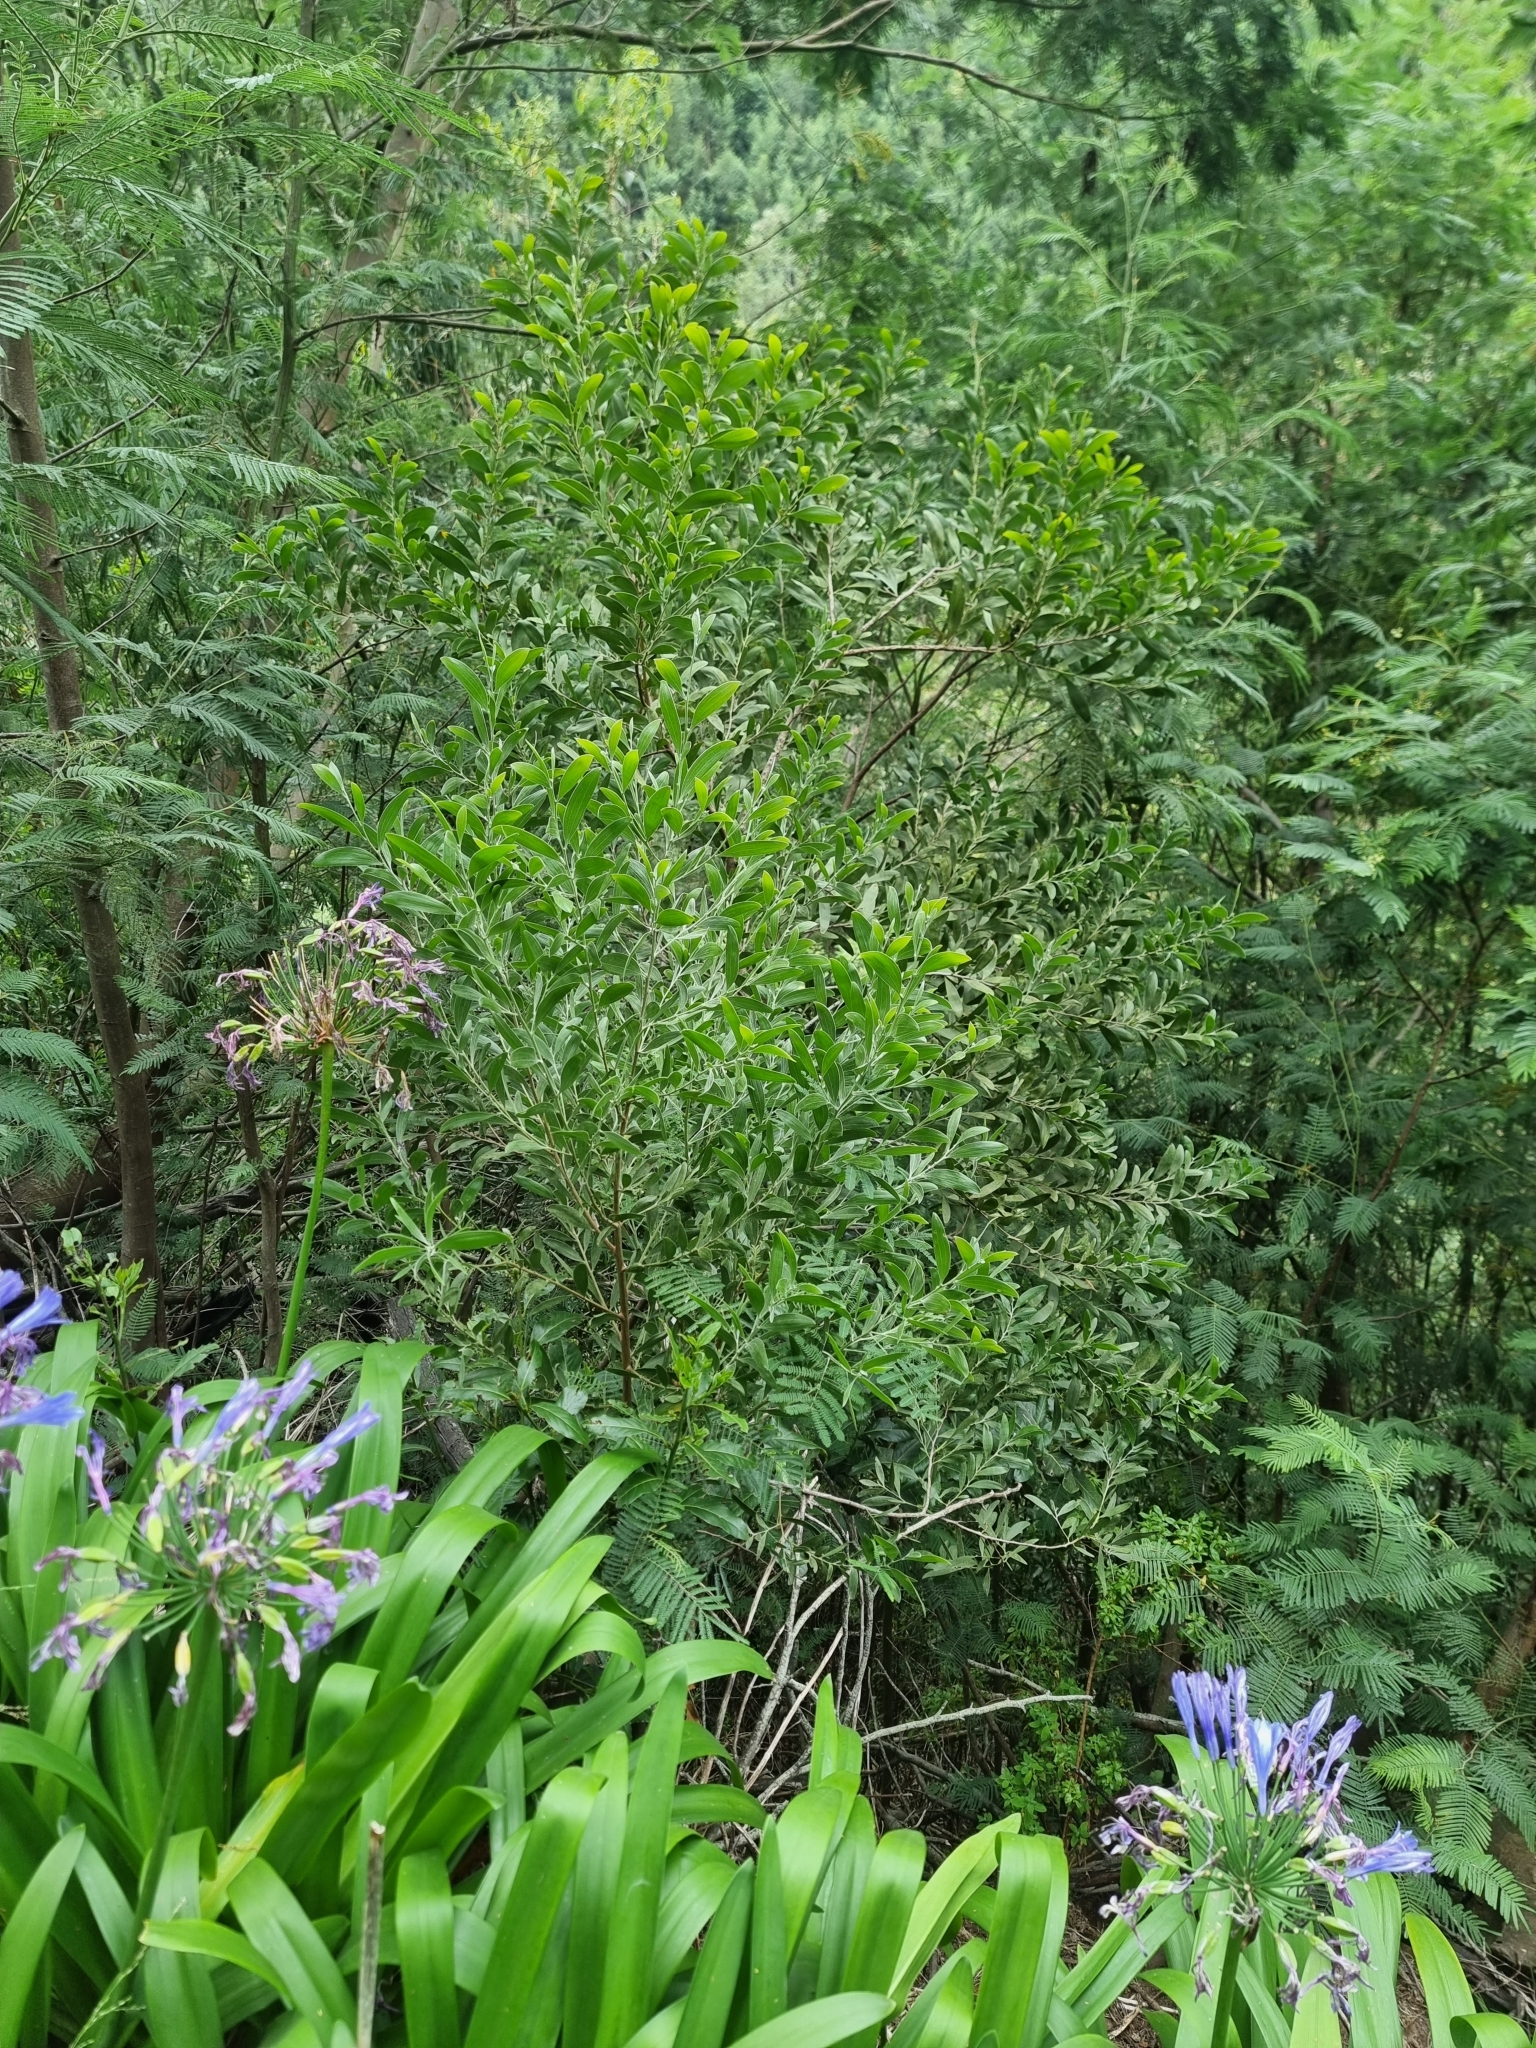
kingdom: Plantae
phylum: Tracheophyta
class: Magnoliopsida
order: Fabales
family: Fabaceae
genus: Acacia
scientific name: Acacia melanoxylon
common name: Blackwood
